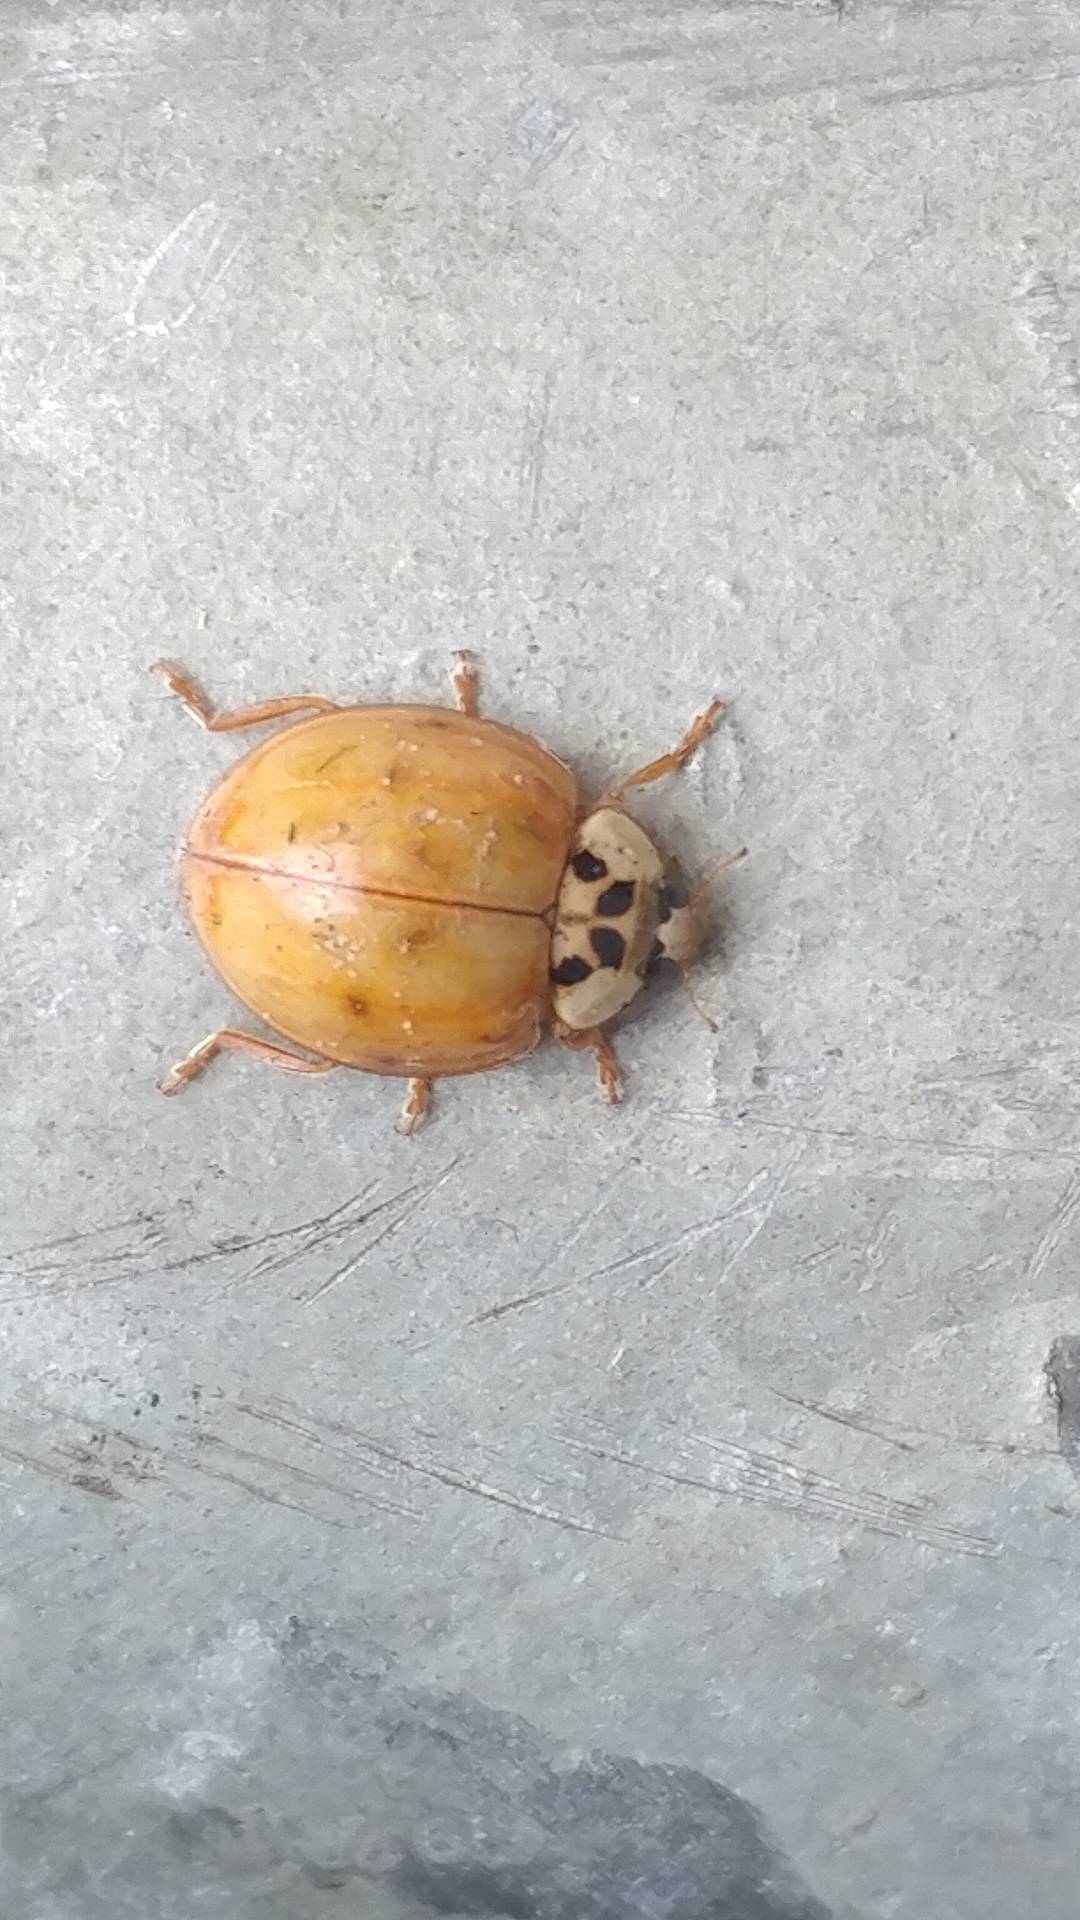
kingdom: Animalia
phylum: Arthropoda
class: Insecta
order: Coleoptera
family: Coccinellidae
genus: Harmonia
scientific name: Harmonia axyridis
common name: Harlequin ladybird
